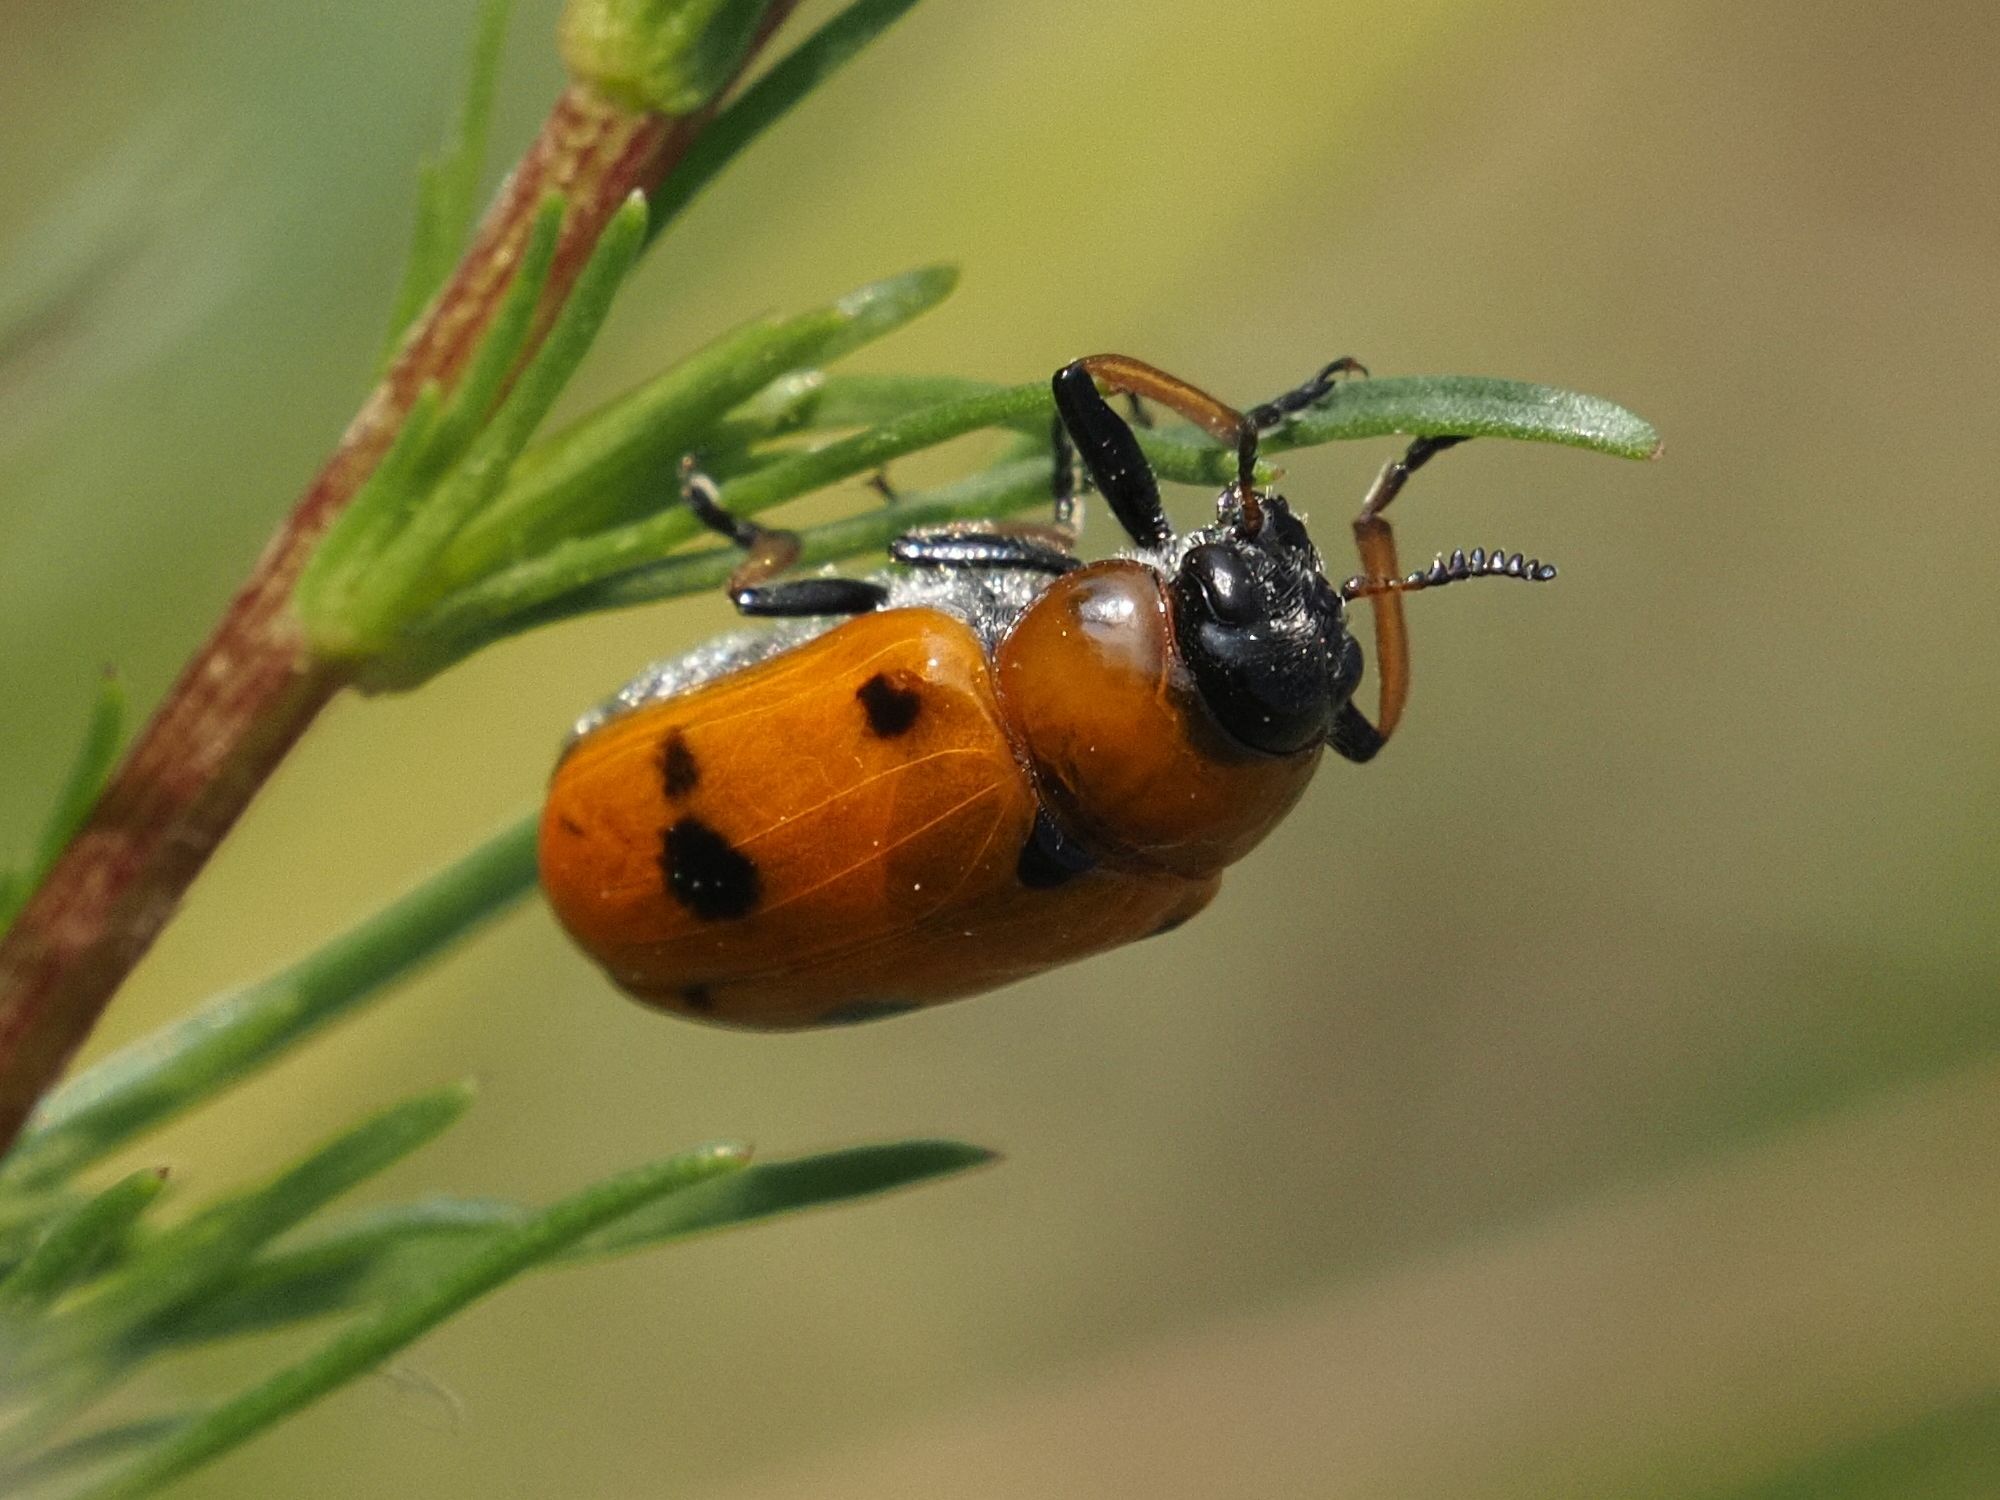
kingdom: Animalia
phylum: Arthropoda
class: Insecta
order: Coleoptera
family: Chrysomelidae
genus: Tituboea
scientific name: Tituboea macropus
